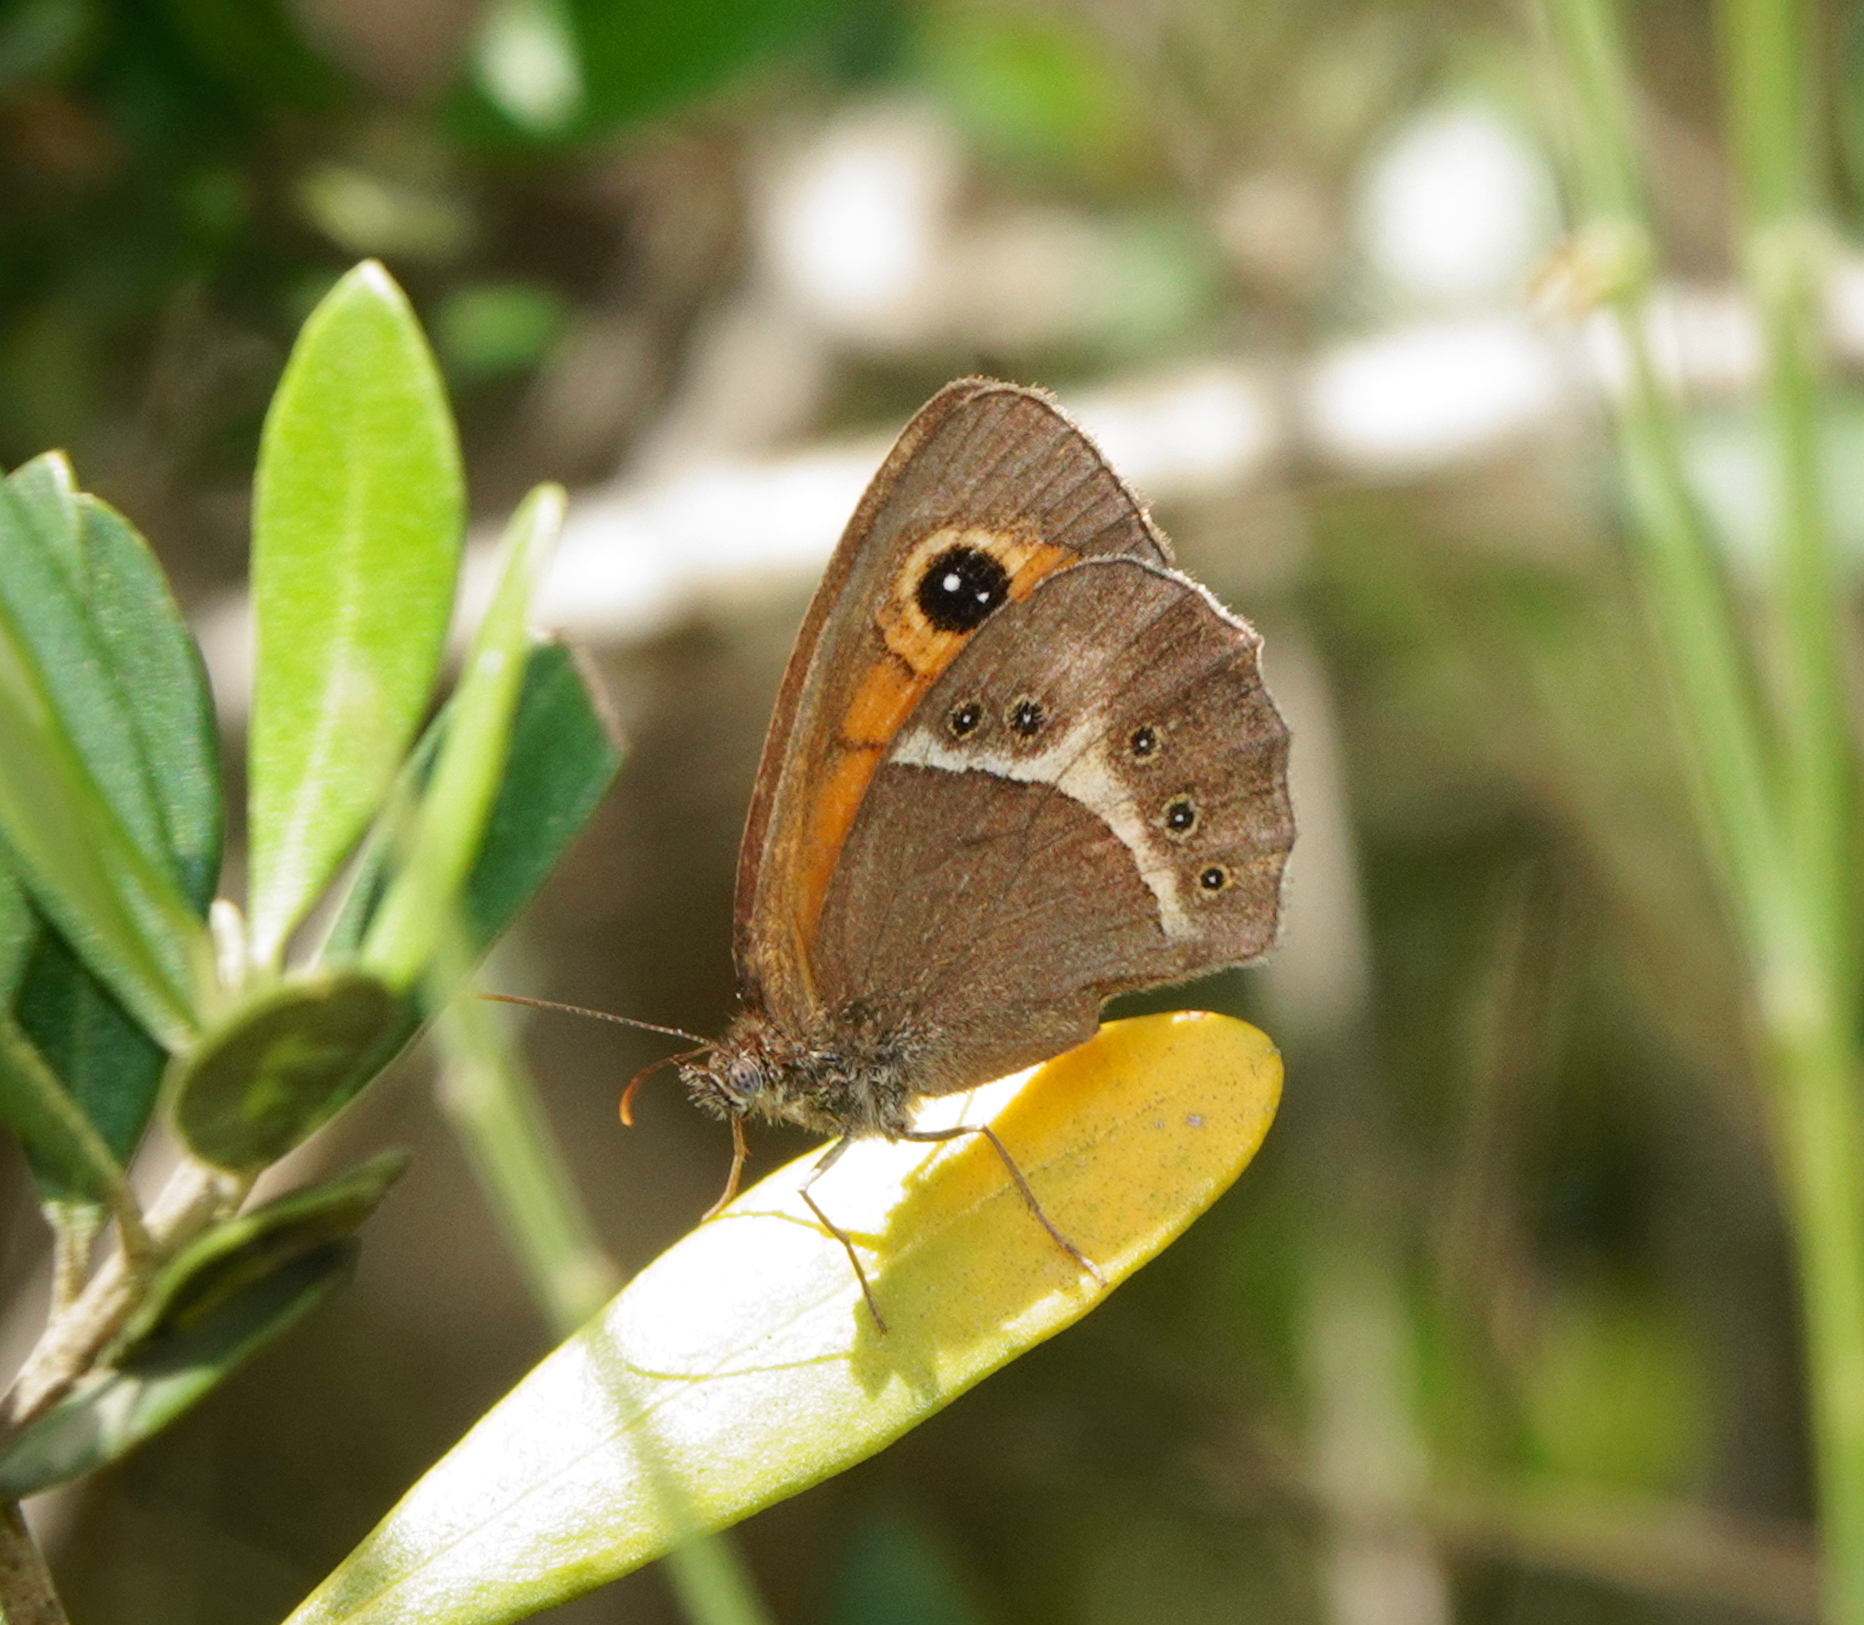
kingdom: Animalia
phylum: Arthropoda
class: Insecta
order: Lepidoptera
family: Nymphalidae
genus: Pyronia
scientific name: Pyronia bathseba
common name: Spanish gatekeeper
